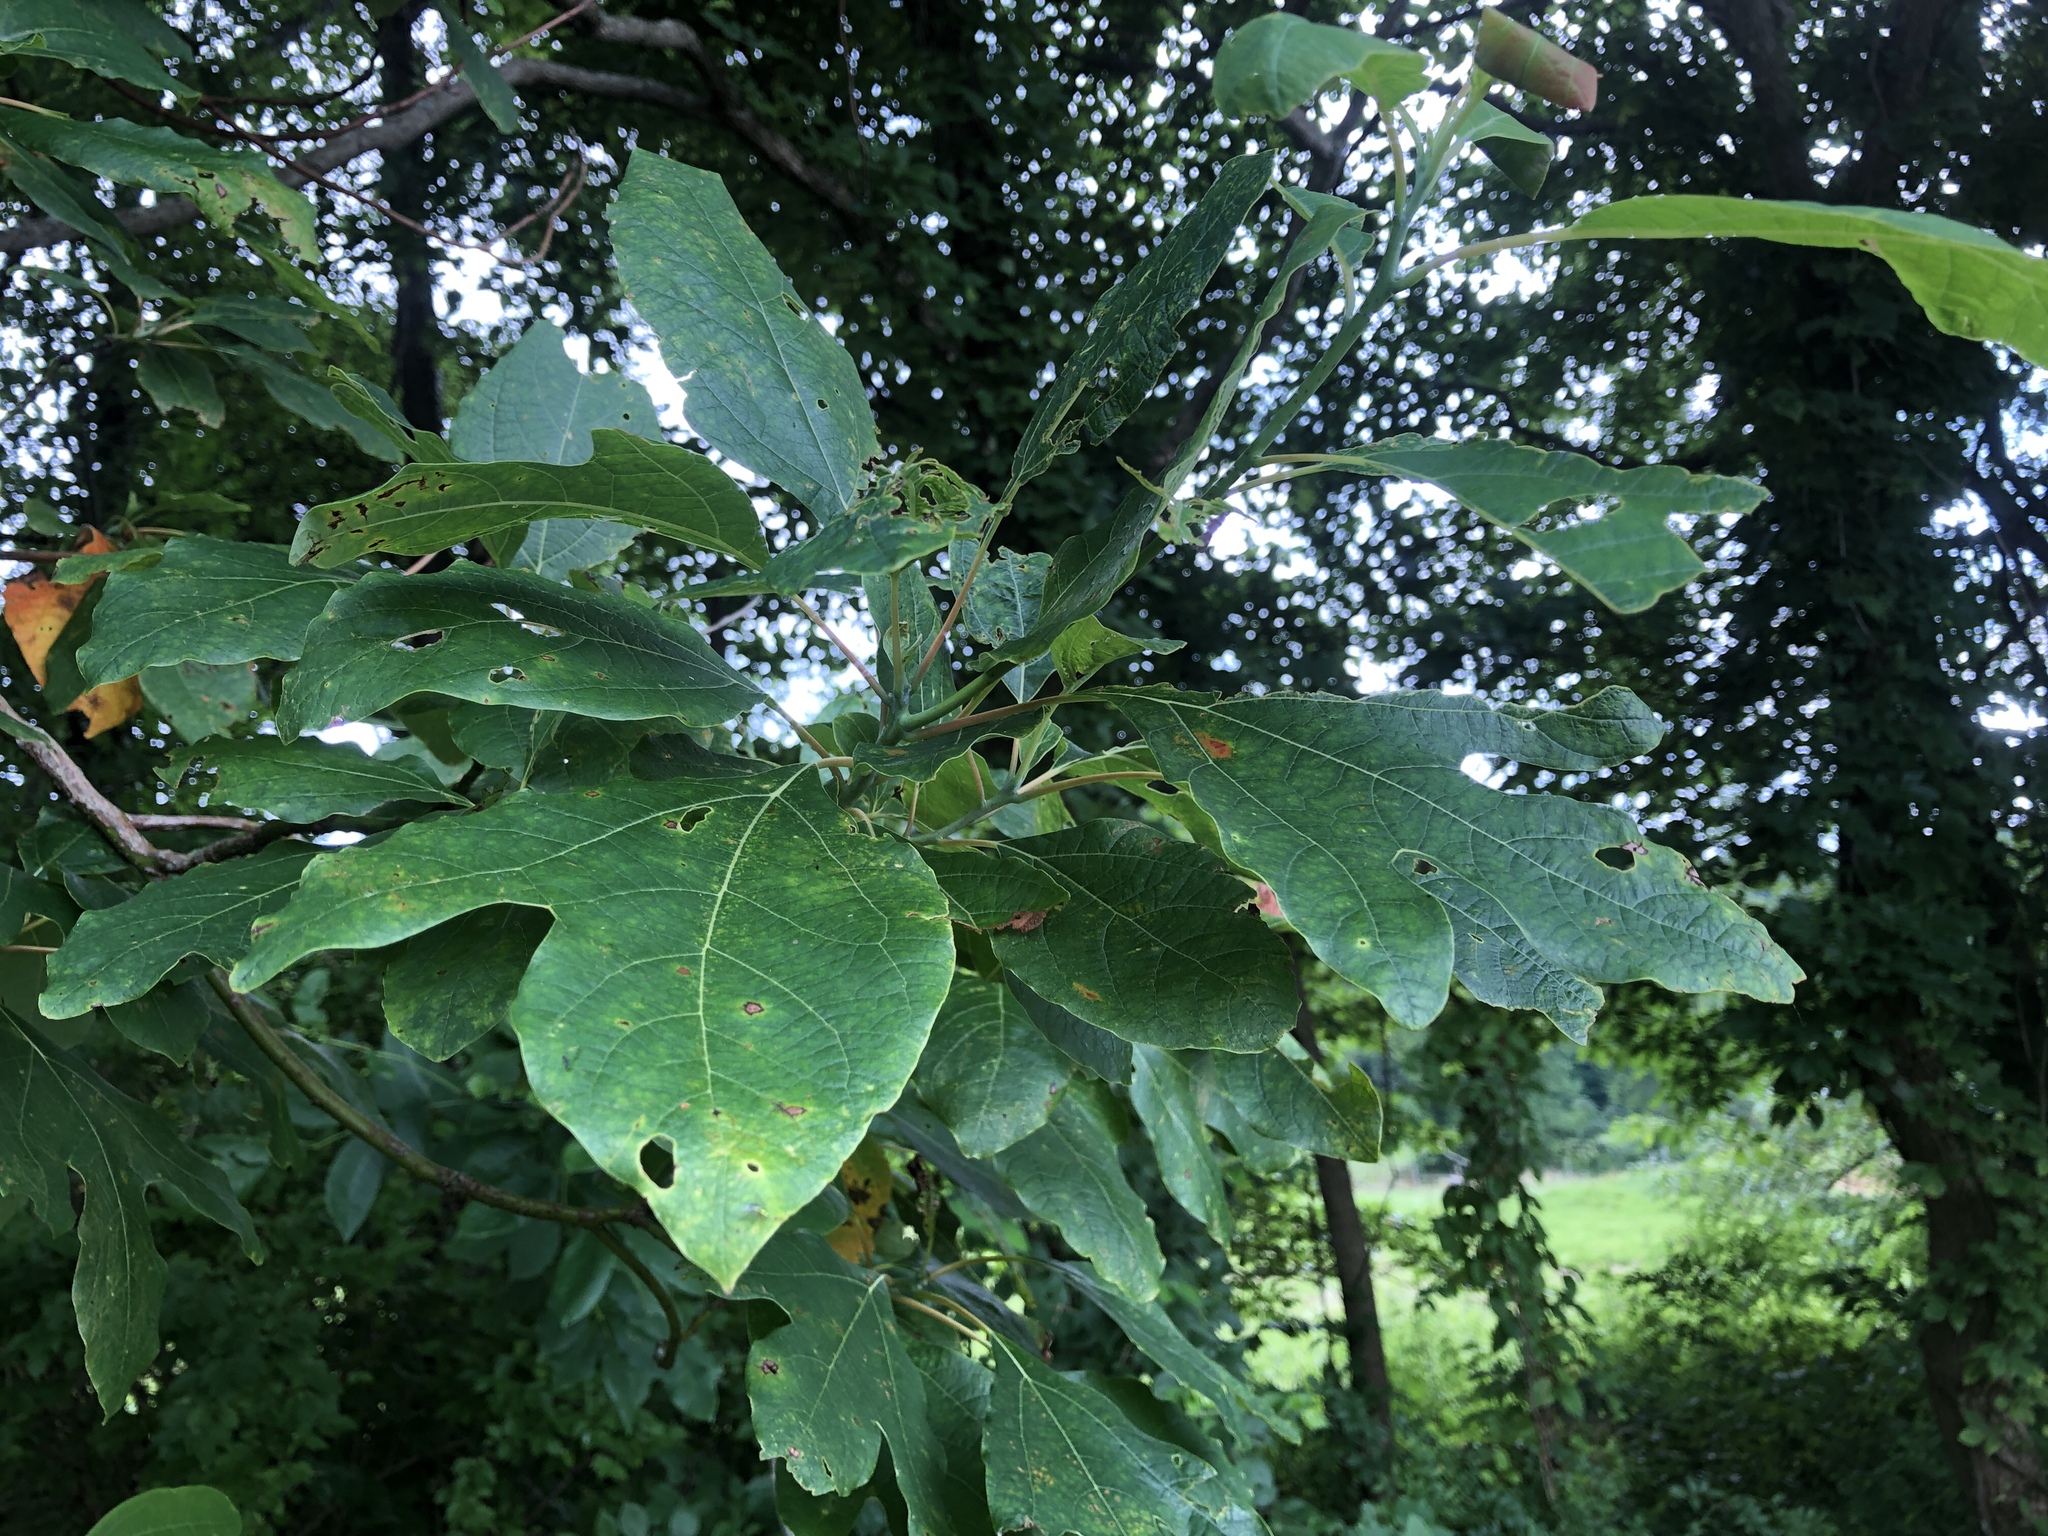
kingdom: Plantae
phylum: Tracheophyta
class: Magnoliopsida
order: Laurales
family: Lauraceae
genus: Sassafras
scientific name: Sassafras albidum
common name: Sassafras
